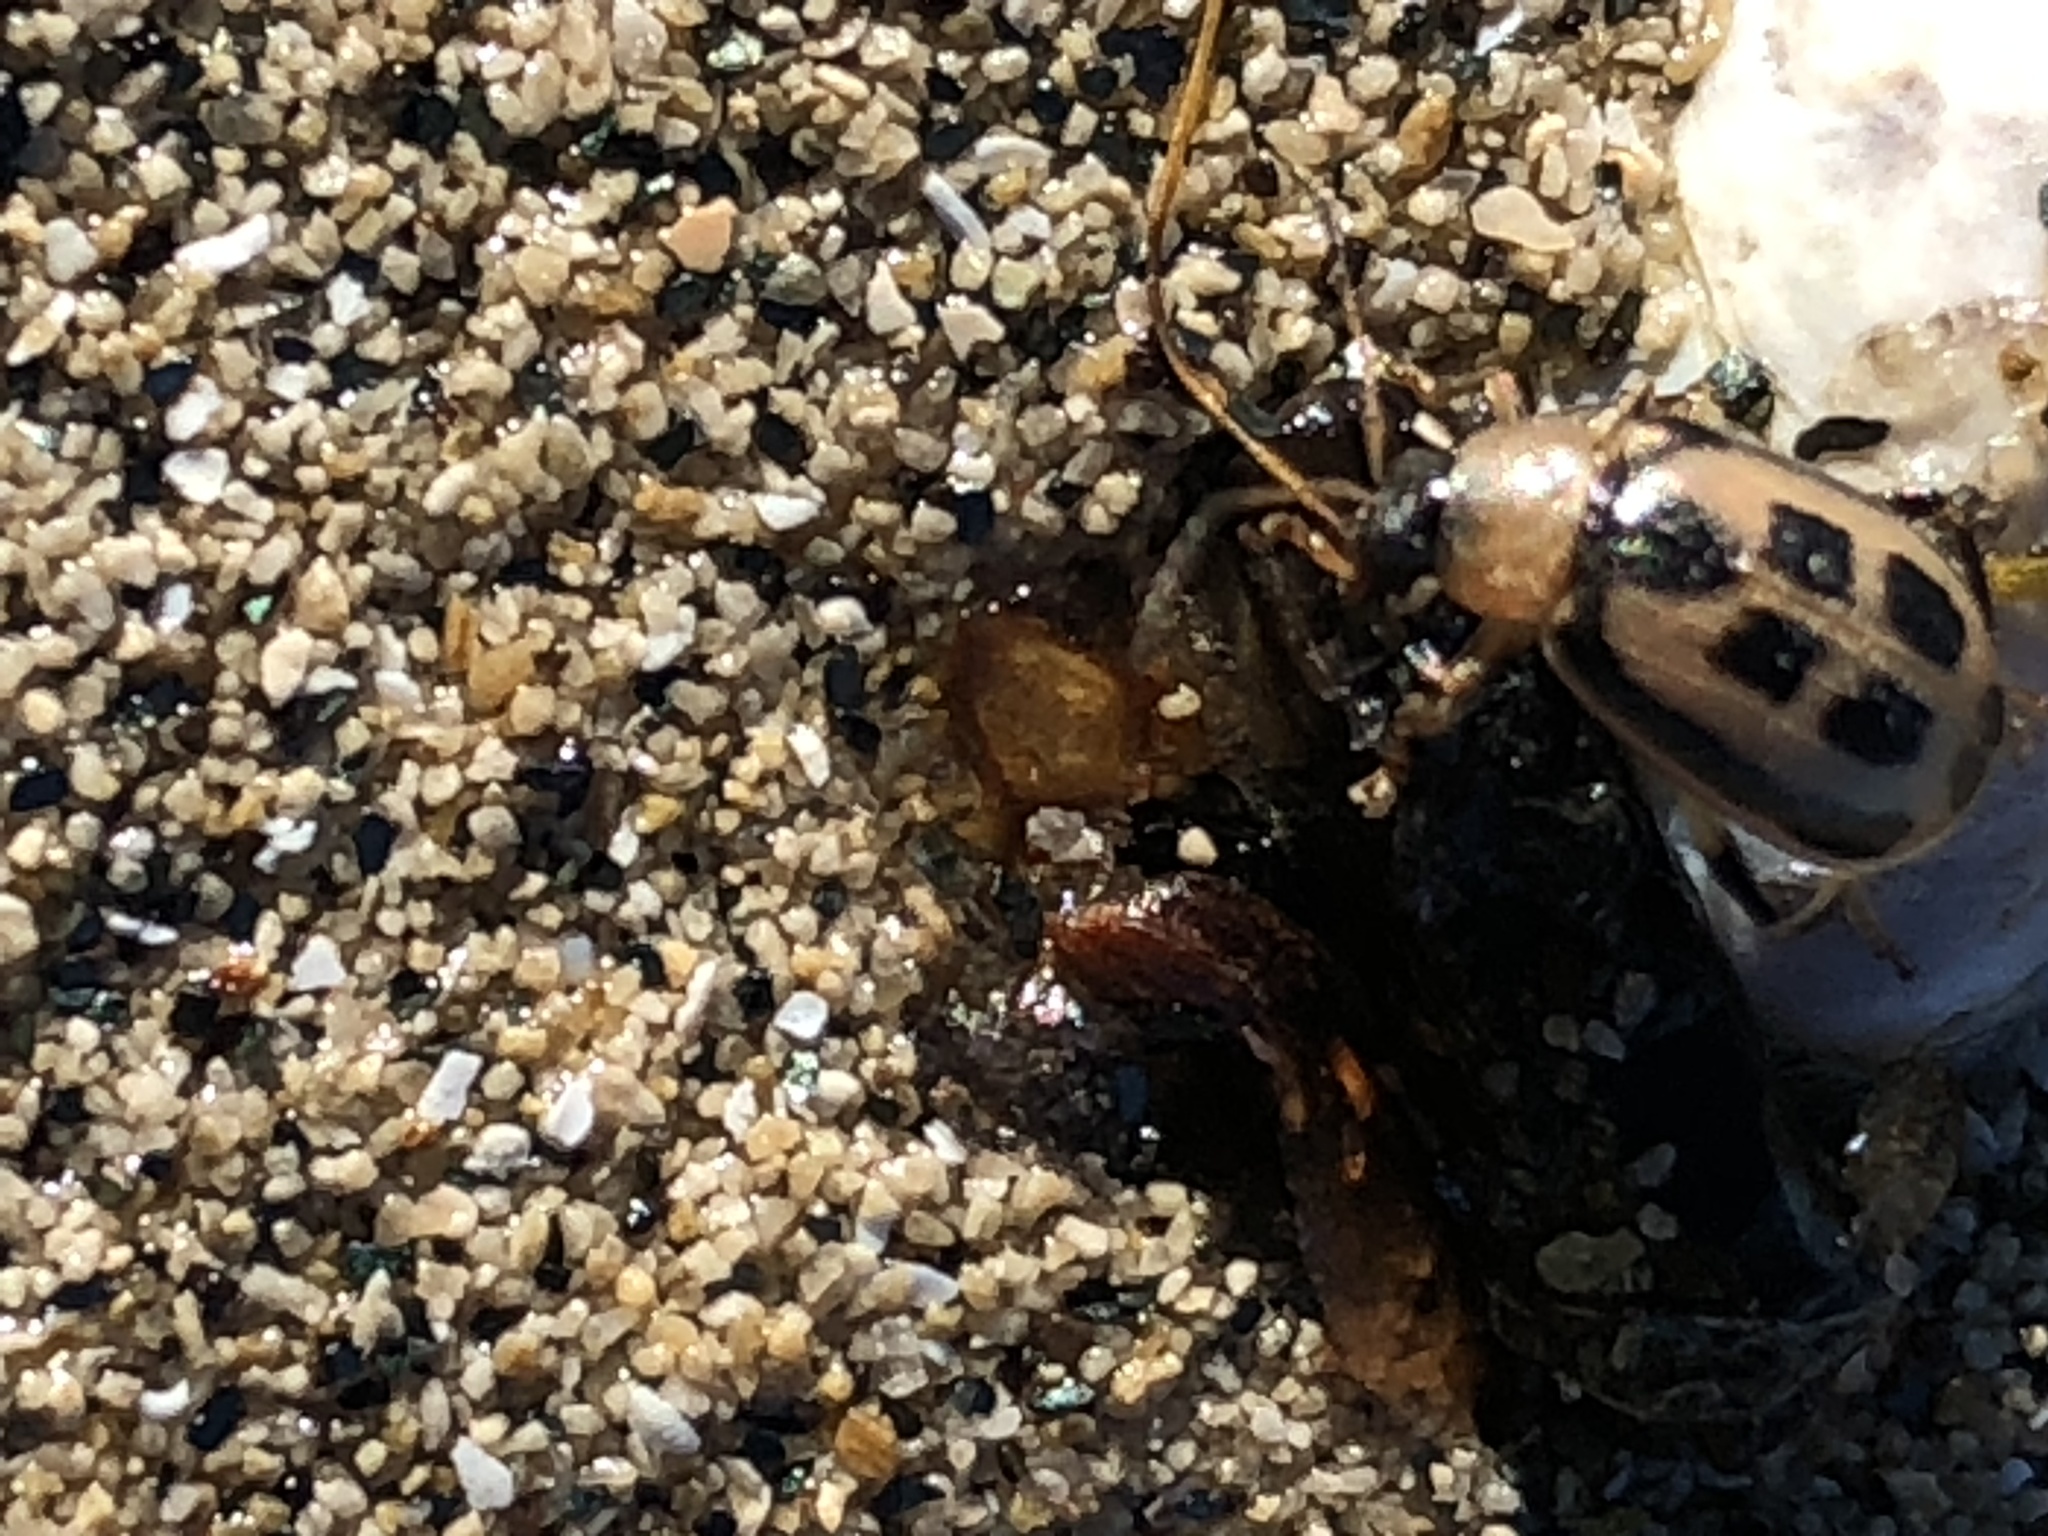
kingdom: Animalia
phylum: Arthropoda
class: Insecta
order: Coleoptera
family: Chrysomelidae
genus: Cerotoma
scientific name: Cerotoma trifurcata
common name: Bean leaf beetle
